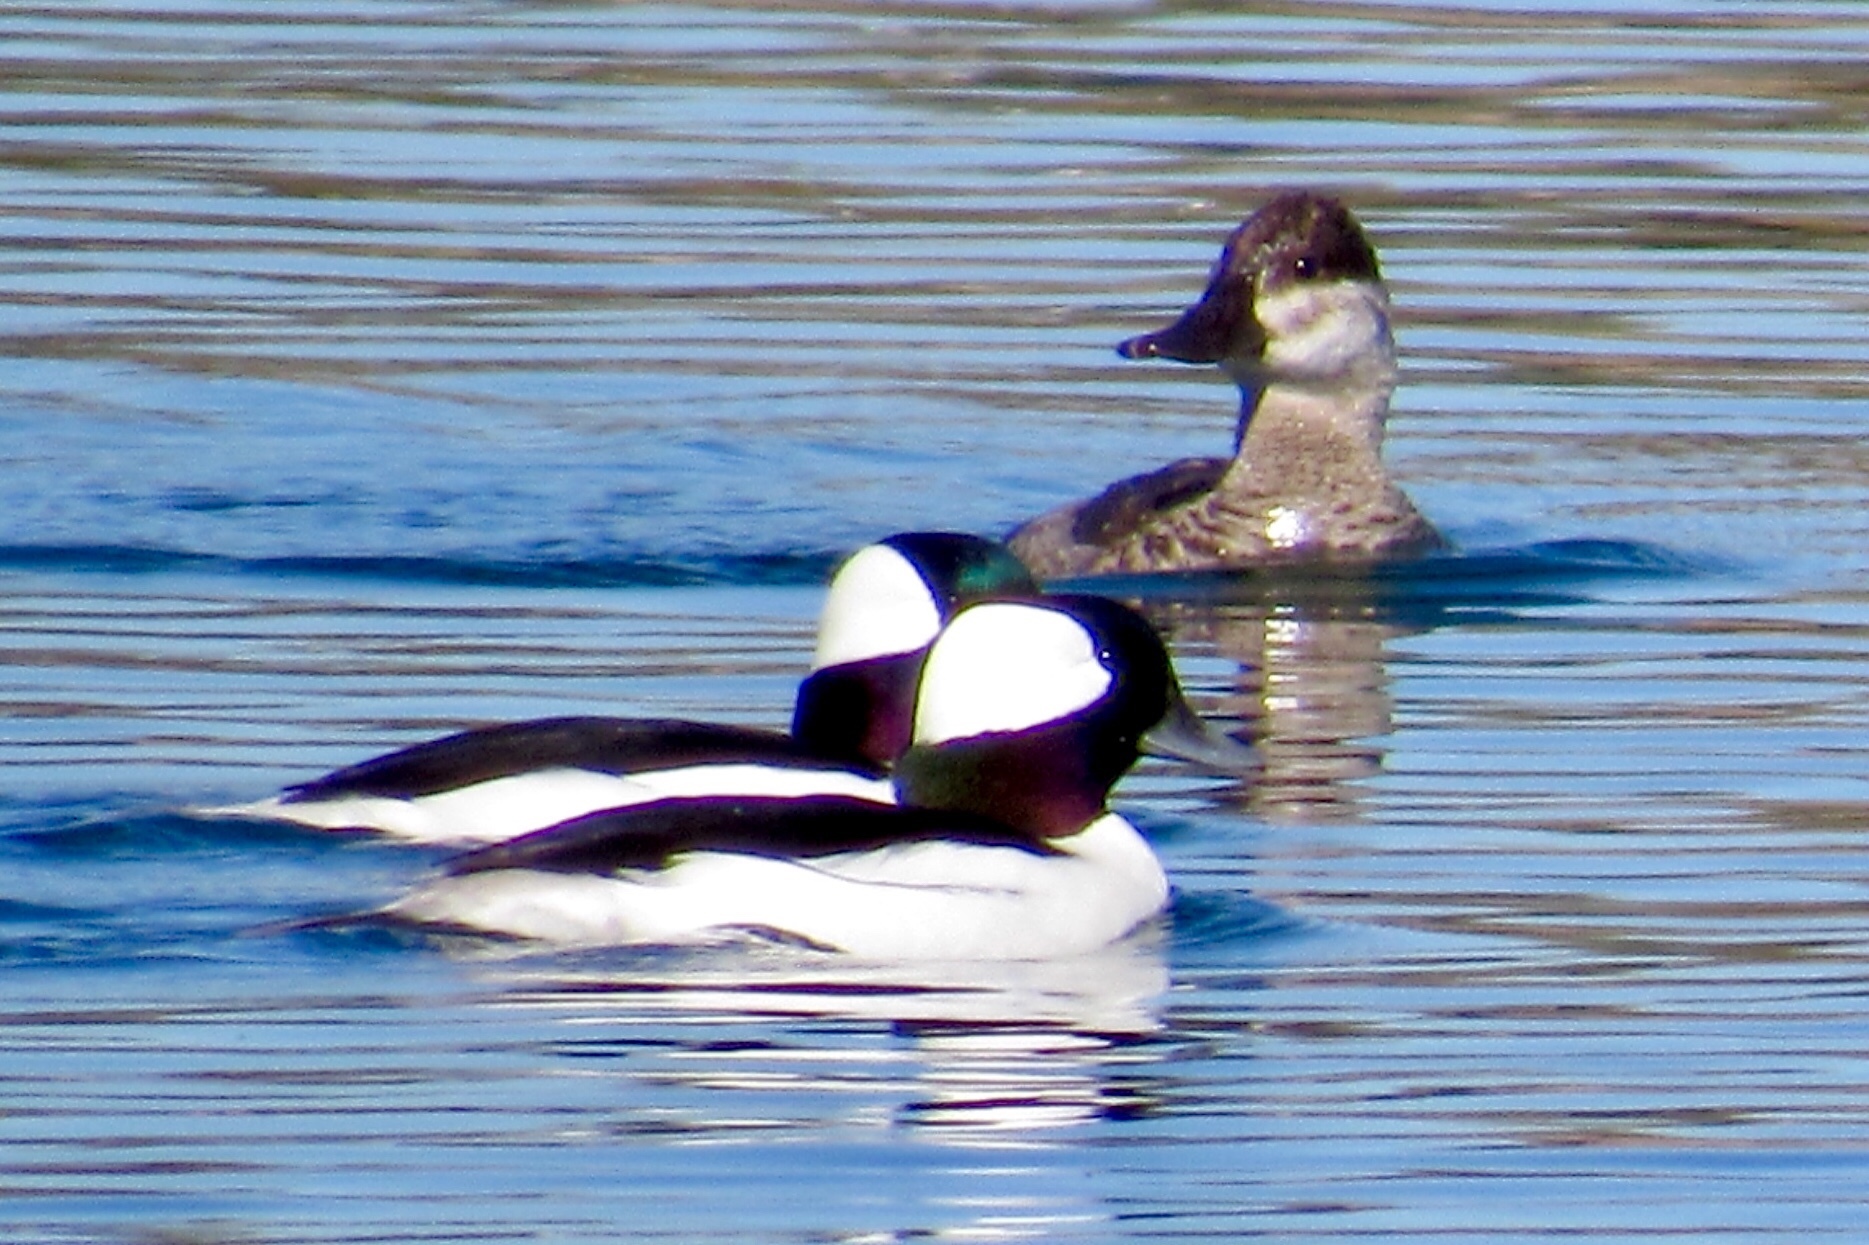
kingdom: Animalia
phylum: Chordata
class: Aves
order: Anseriformes
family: Anatidae
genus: Oxyura
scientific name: Oxyura jamaicensis
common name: Ruddy duck
